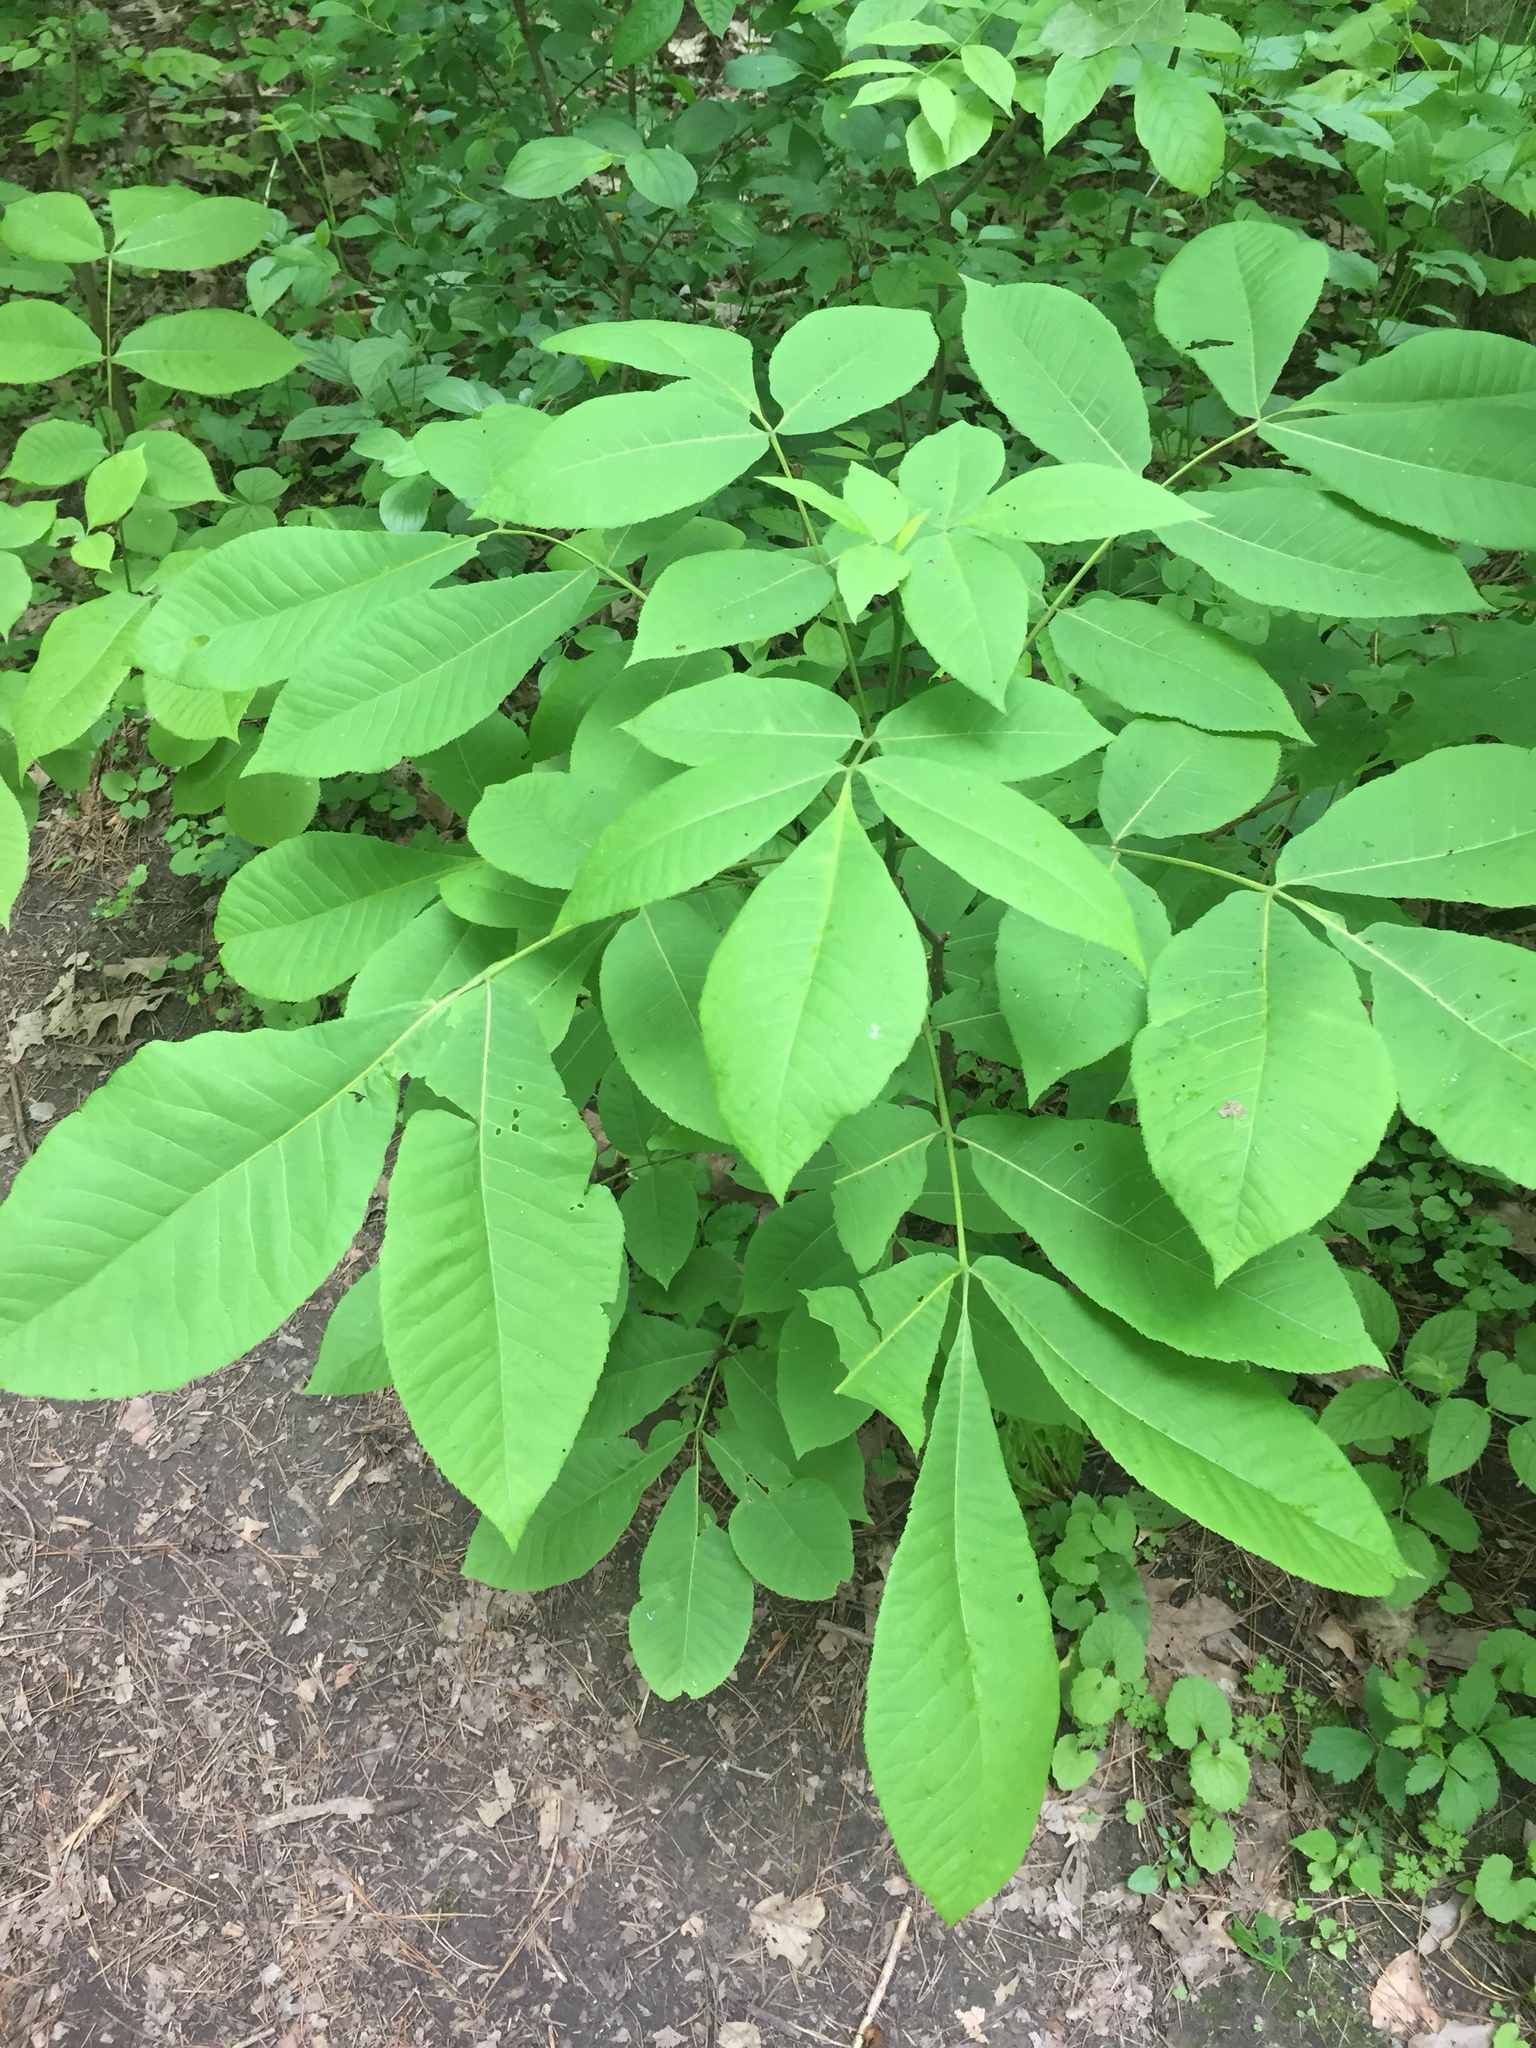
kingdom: Plantae
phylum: Tracheophyta
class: Magnoliopsida
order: Fagales
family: Juglandaceae
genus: Carya
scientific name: Carya cordiformis
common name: Bitternut hickory
